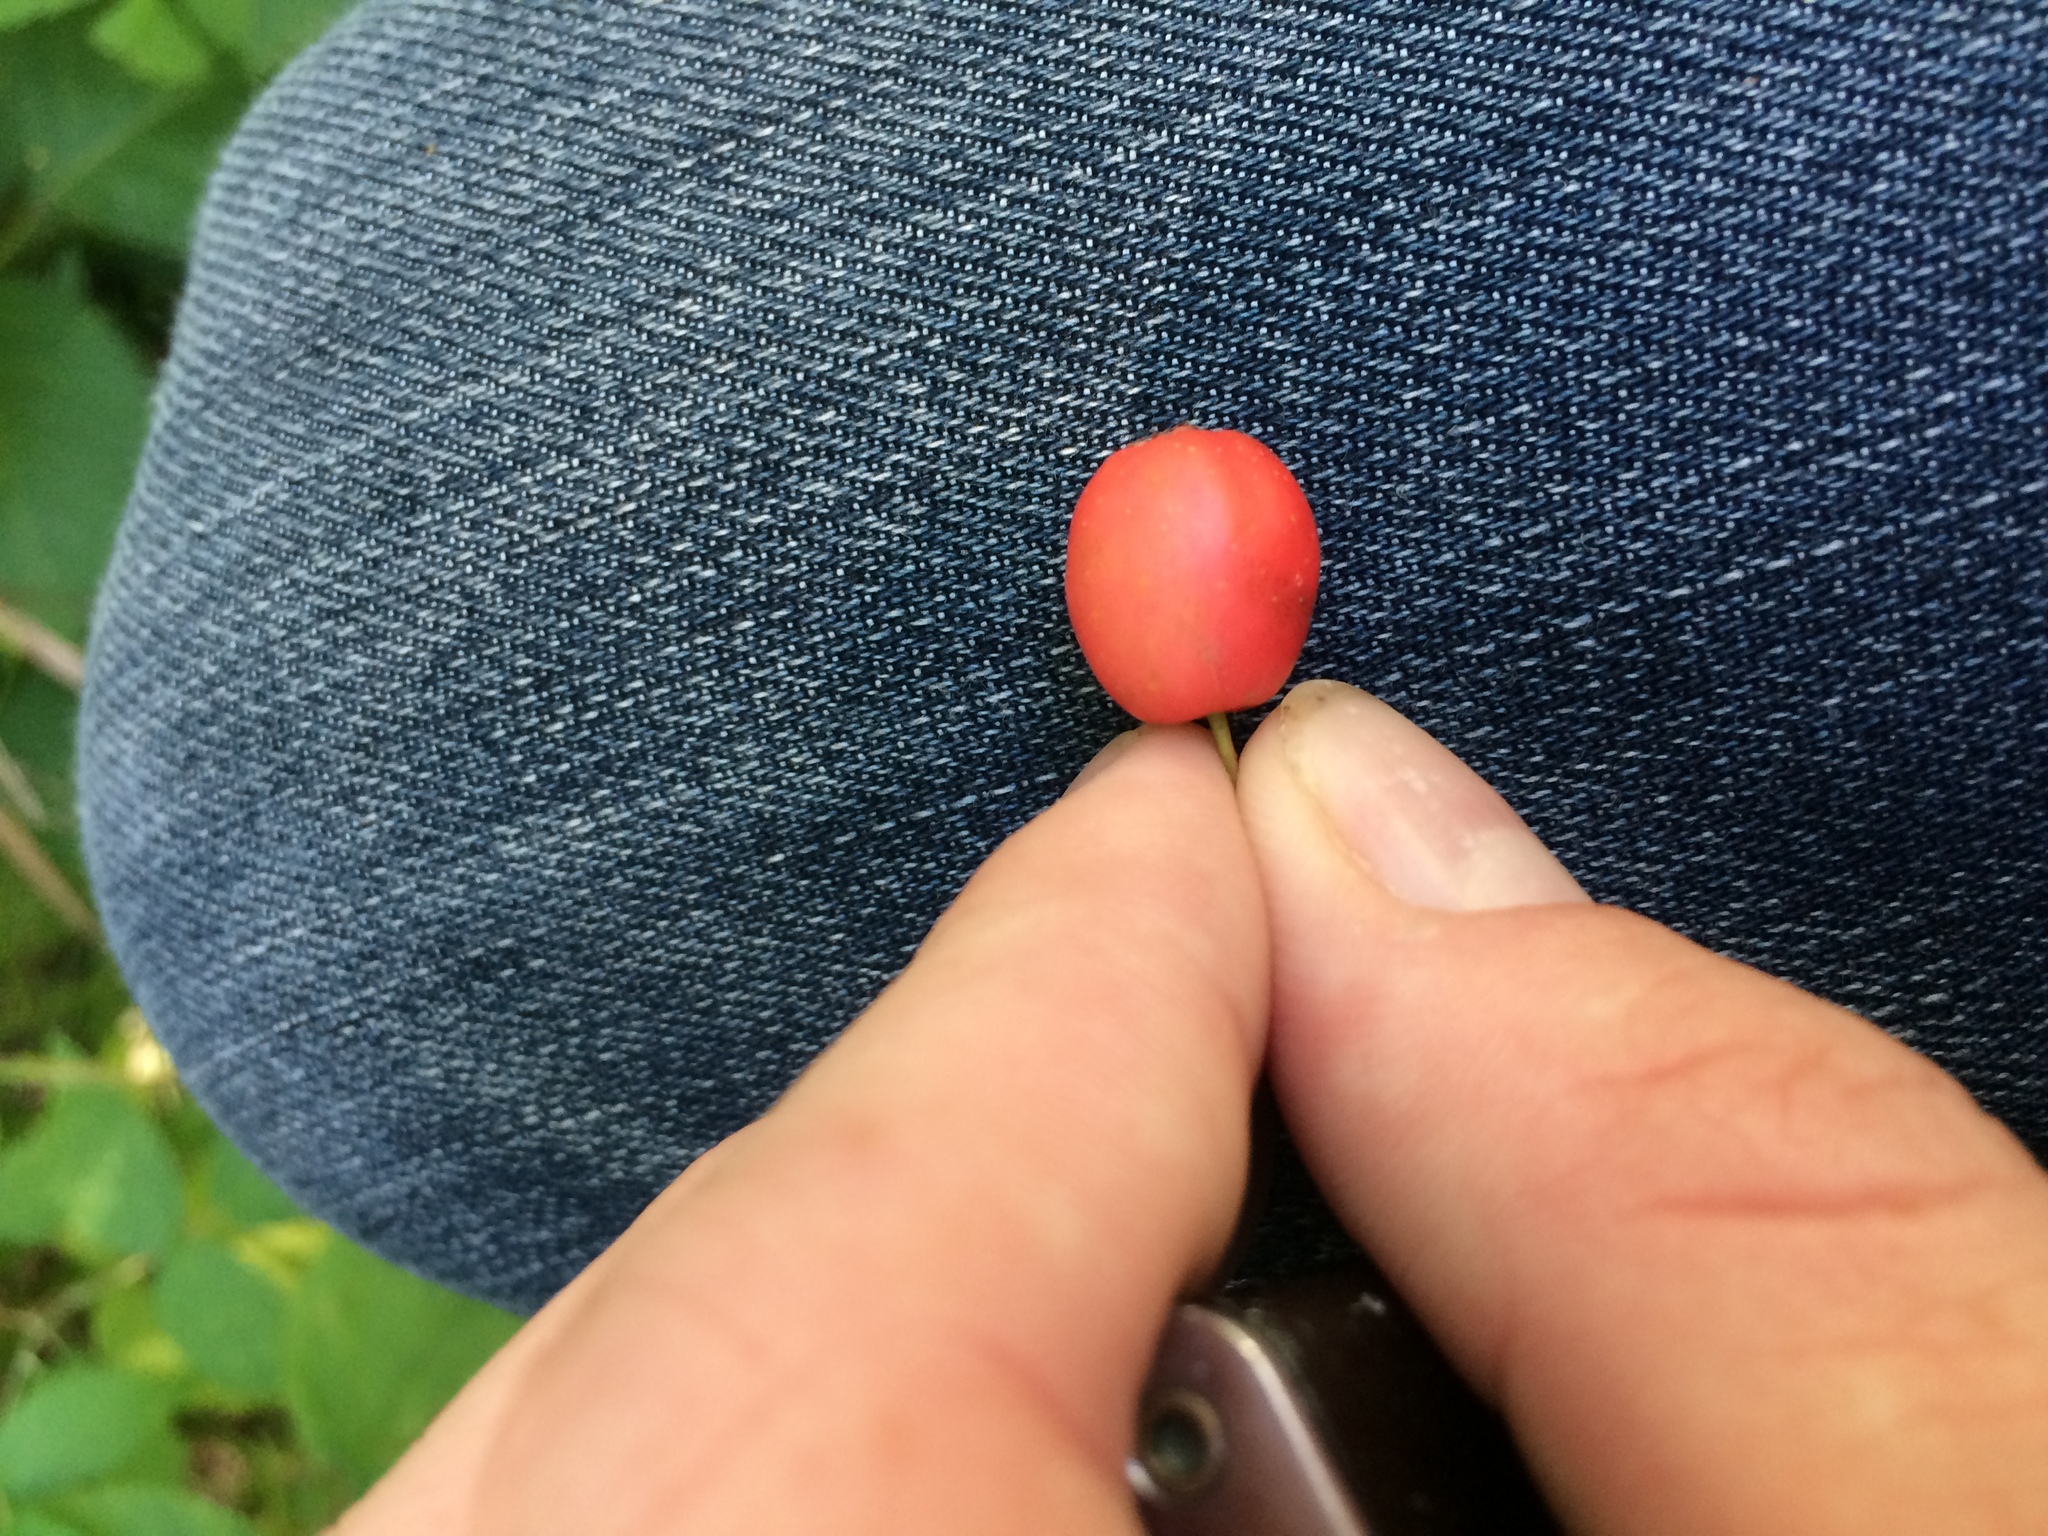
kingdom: Plantae
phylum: Tracheophyta
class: Magnoliopsida
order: Rosales
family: Rosaceae
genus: Crataegus
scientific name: Crataegus macrosperma
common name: Variable hawthorn
